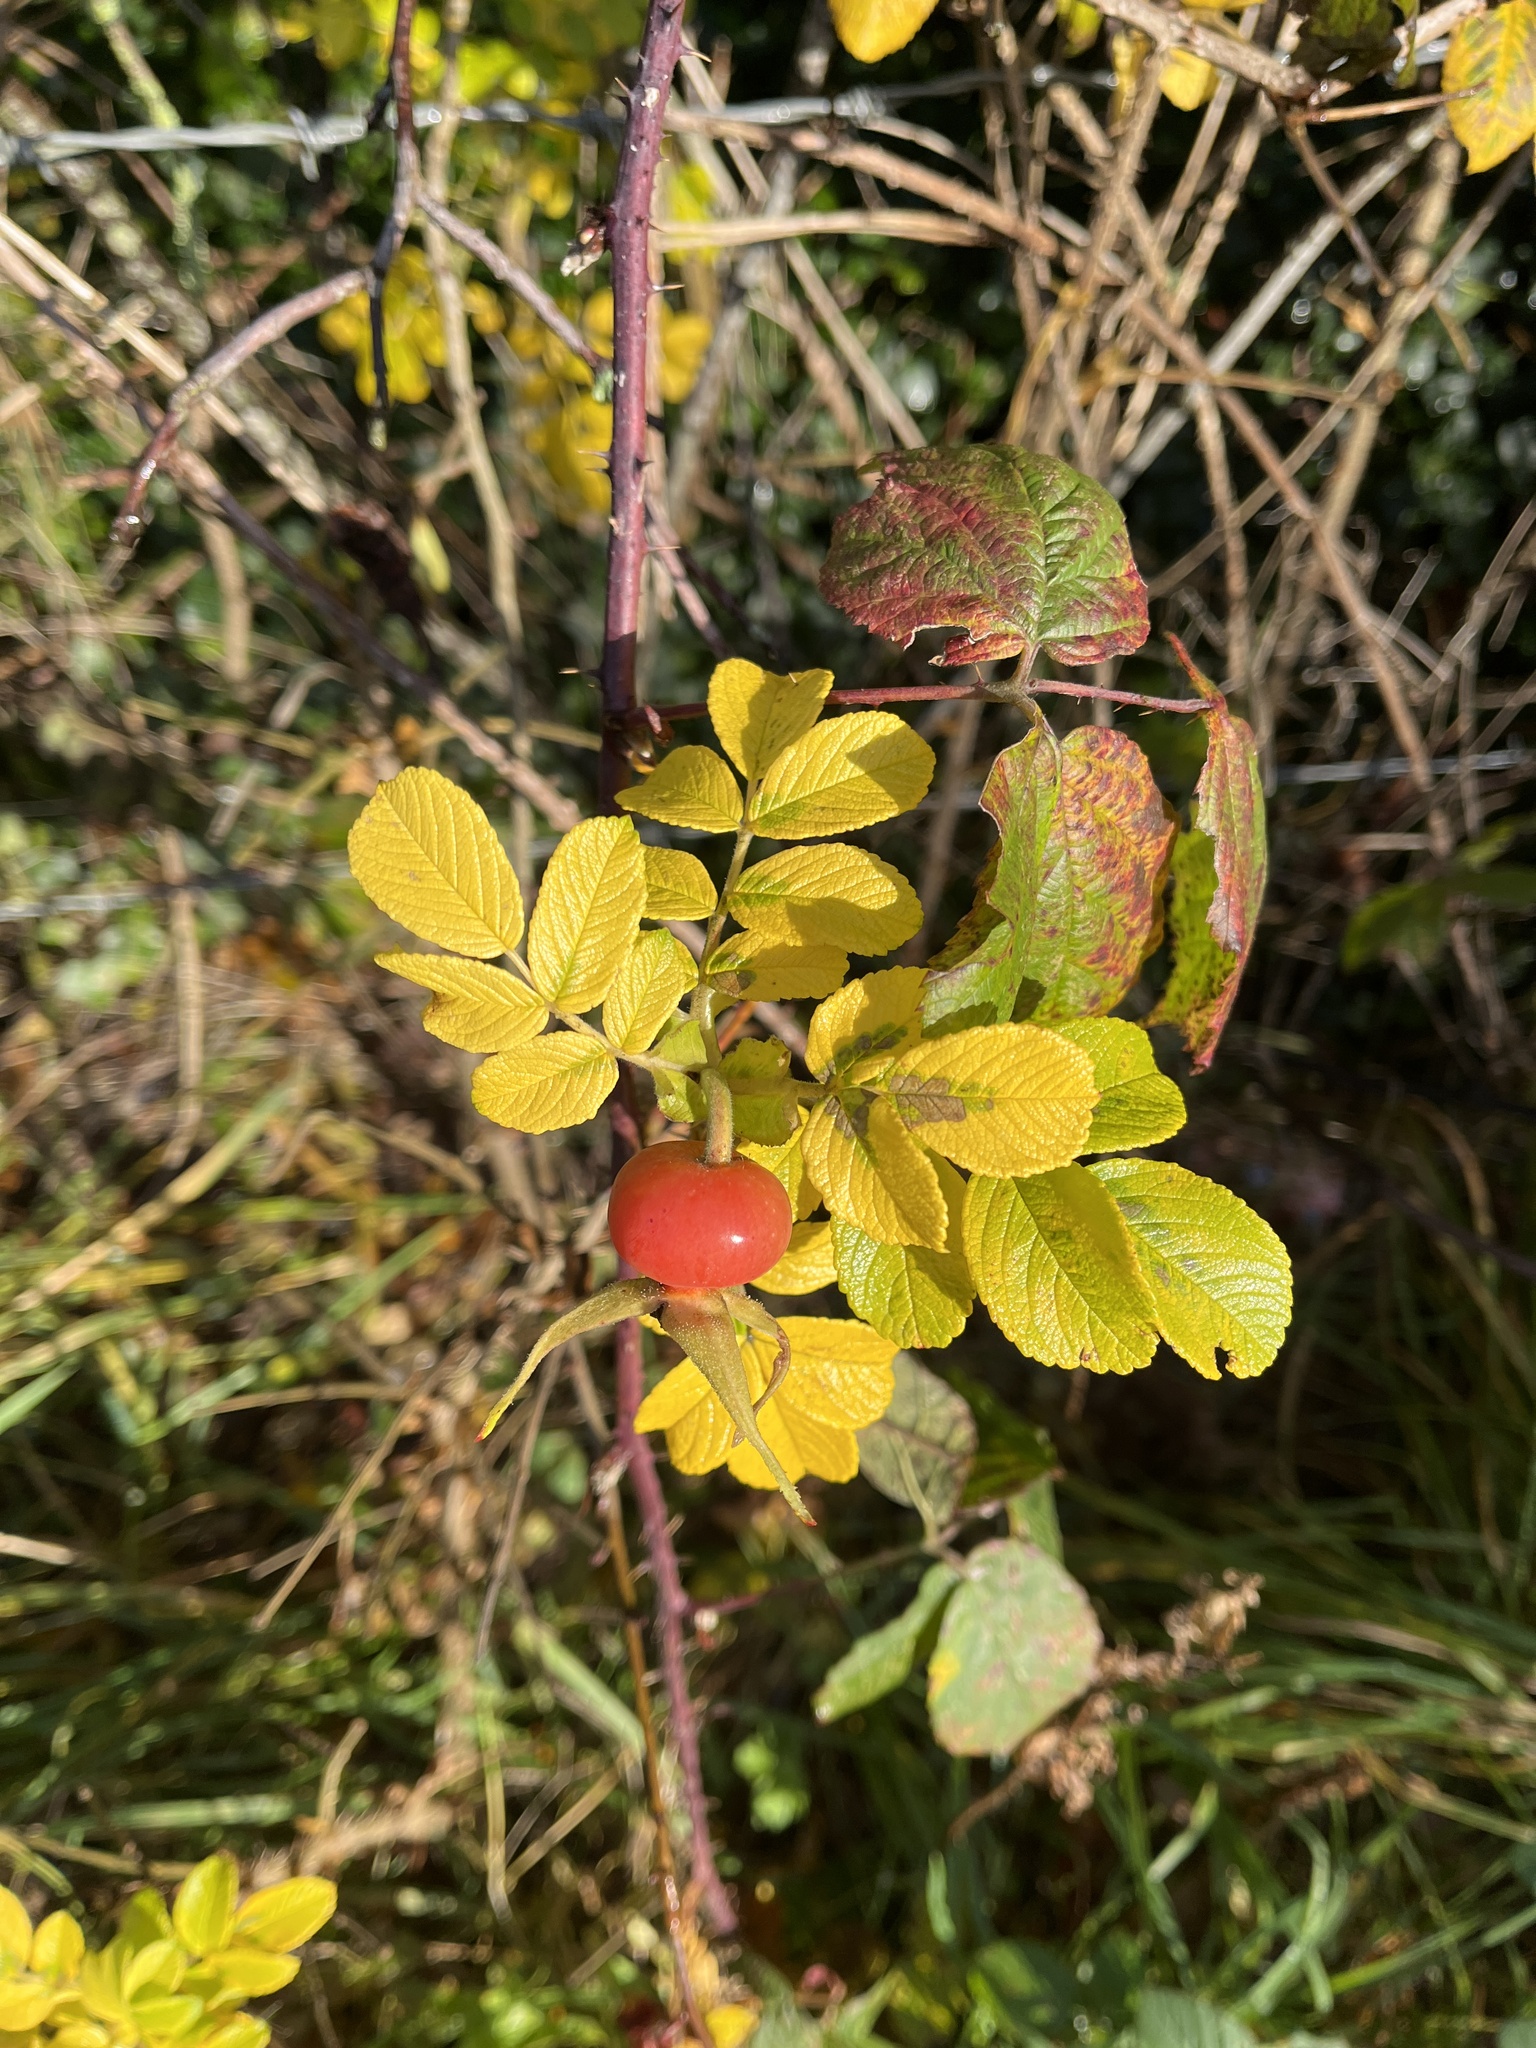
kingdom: Plantae
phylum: Tracheophyta
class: Magnoliopsida
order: Rosales
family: Rosaceae
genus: Rosa
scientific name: Rosa rugosa
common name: Japanese rose
